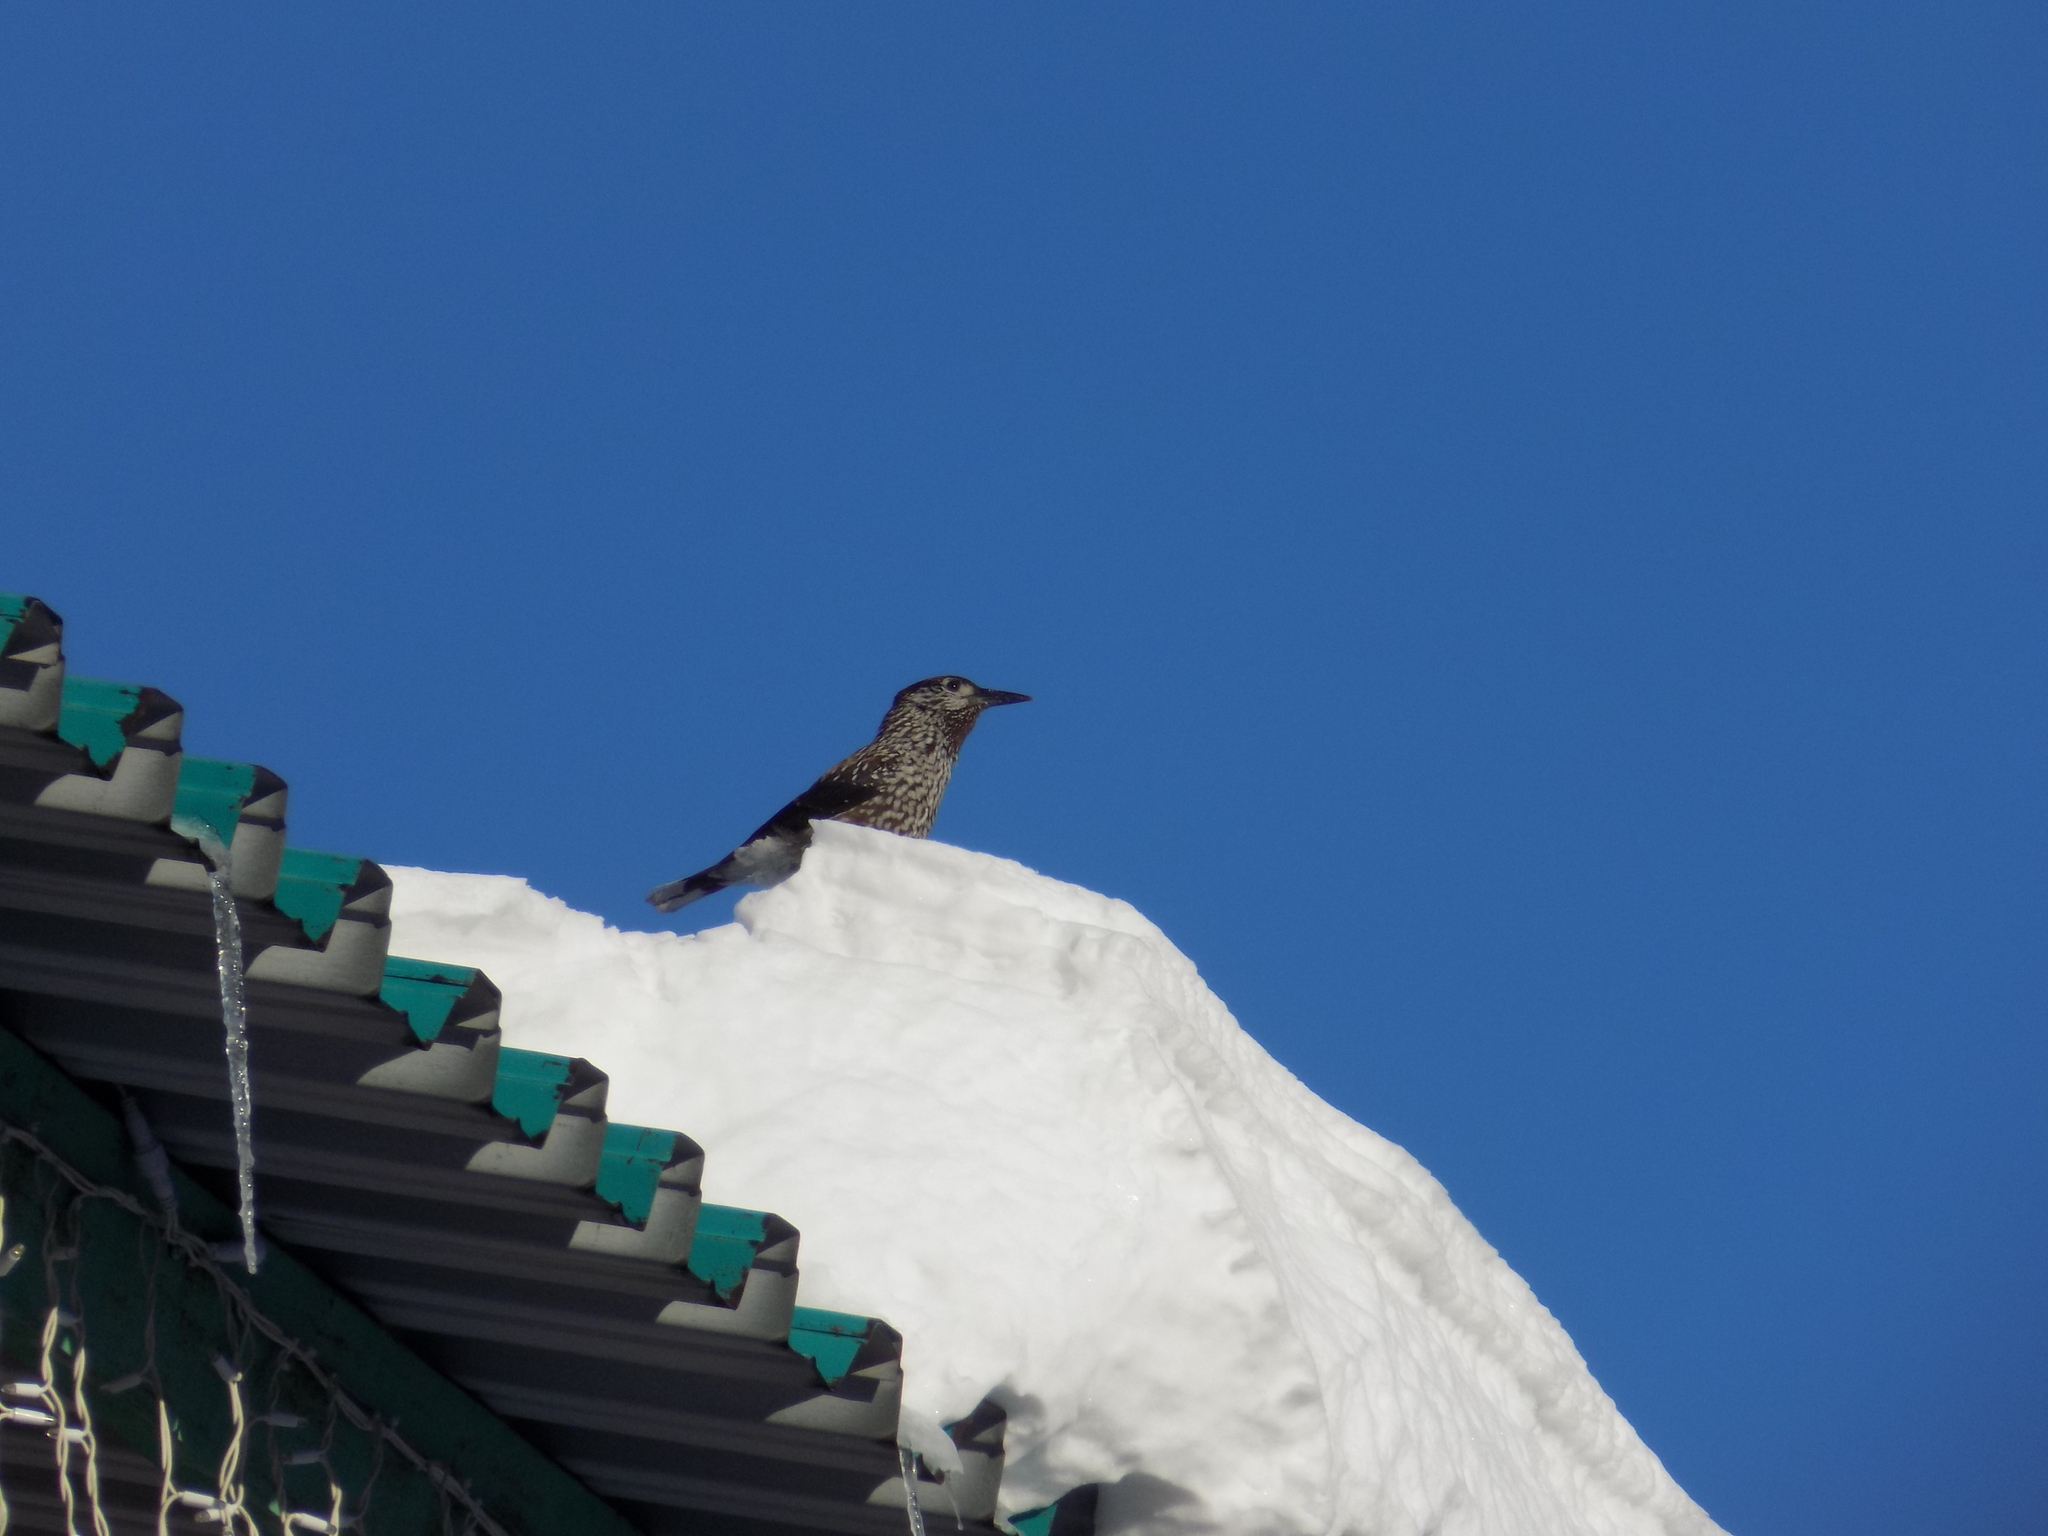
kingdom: Animalia
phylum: Chordata
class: Aves
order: Passeriformes
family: Corvidae
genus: Nucifraga
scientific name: Nucifraga caryocatactes
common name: Spotted nutcracker
